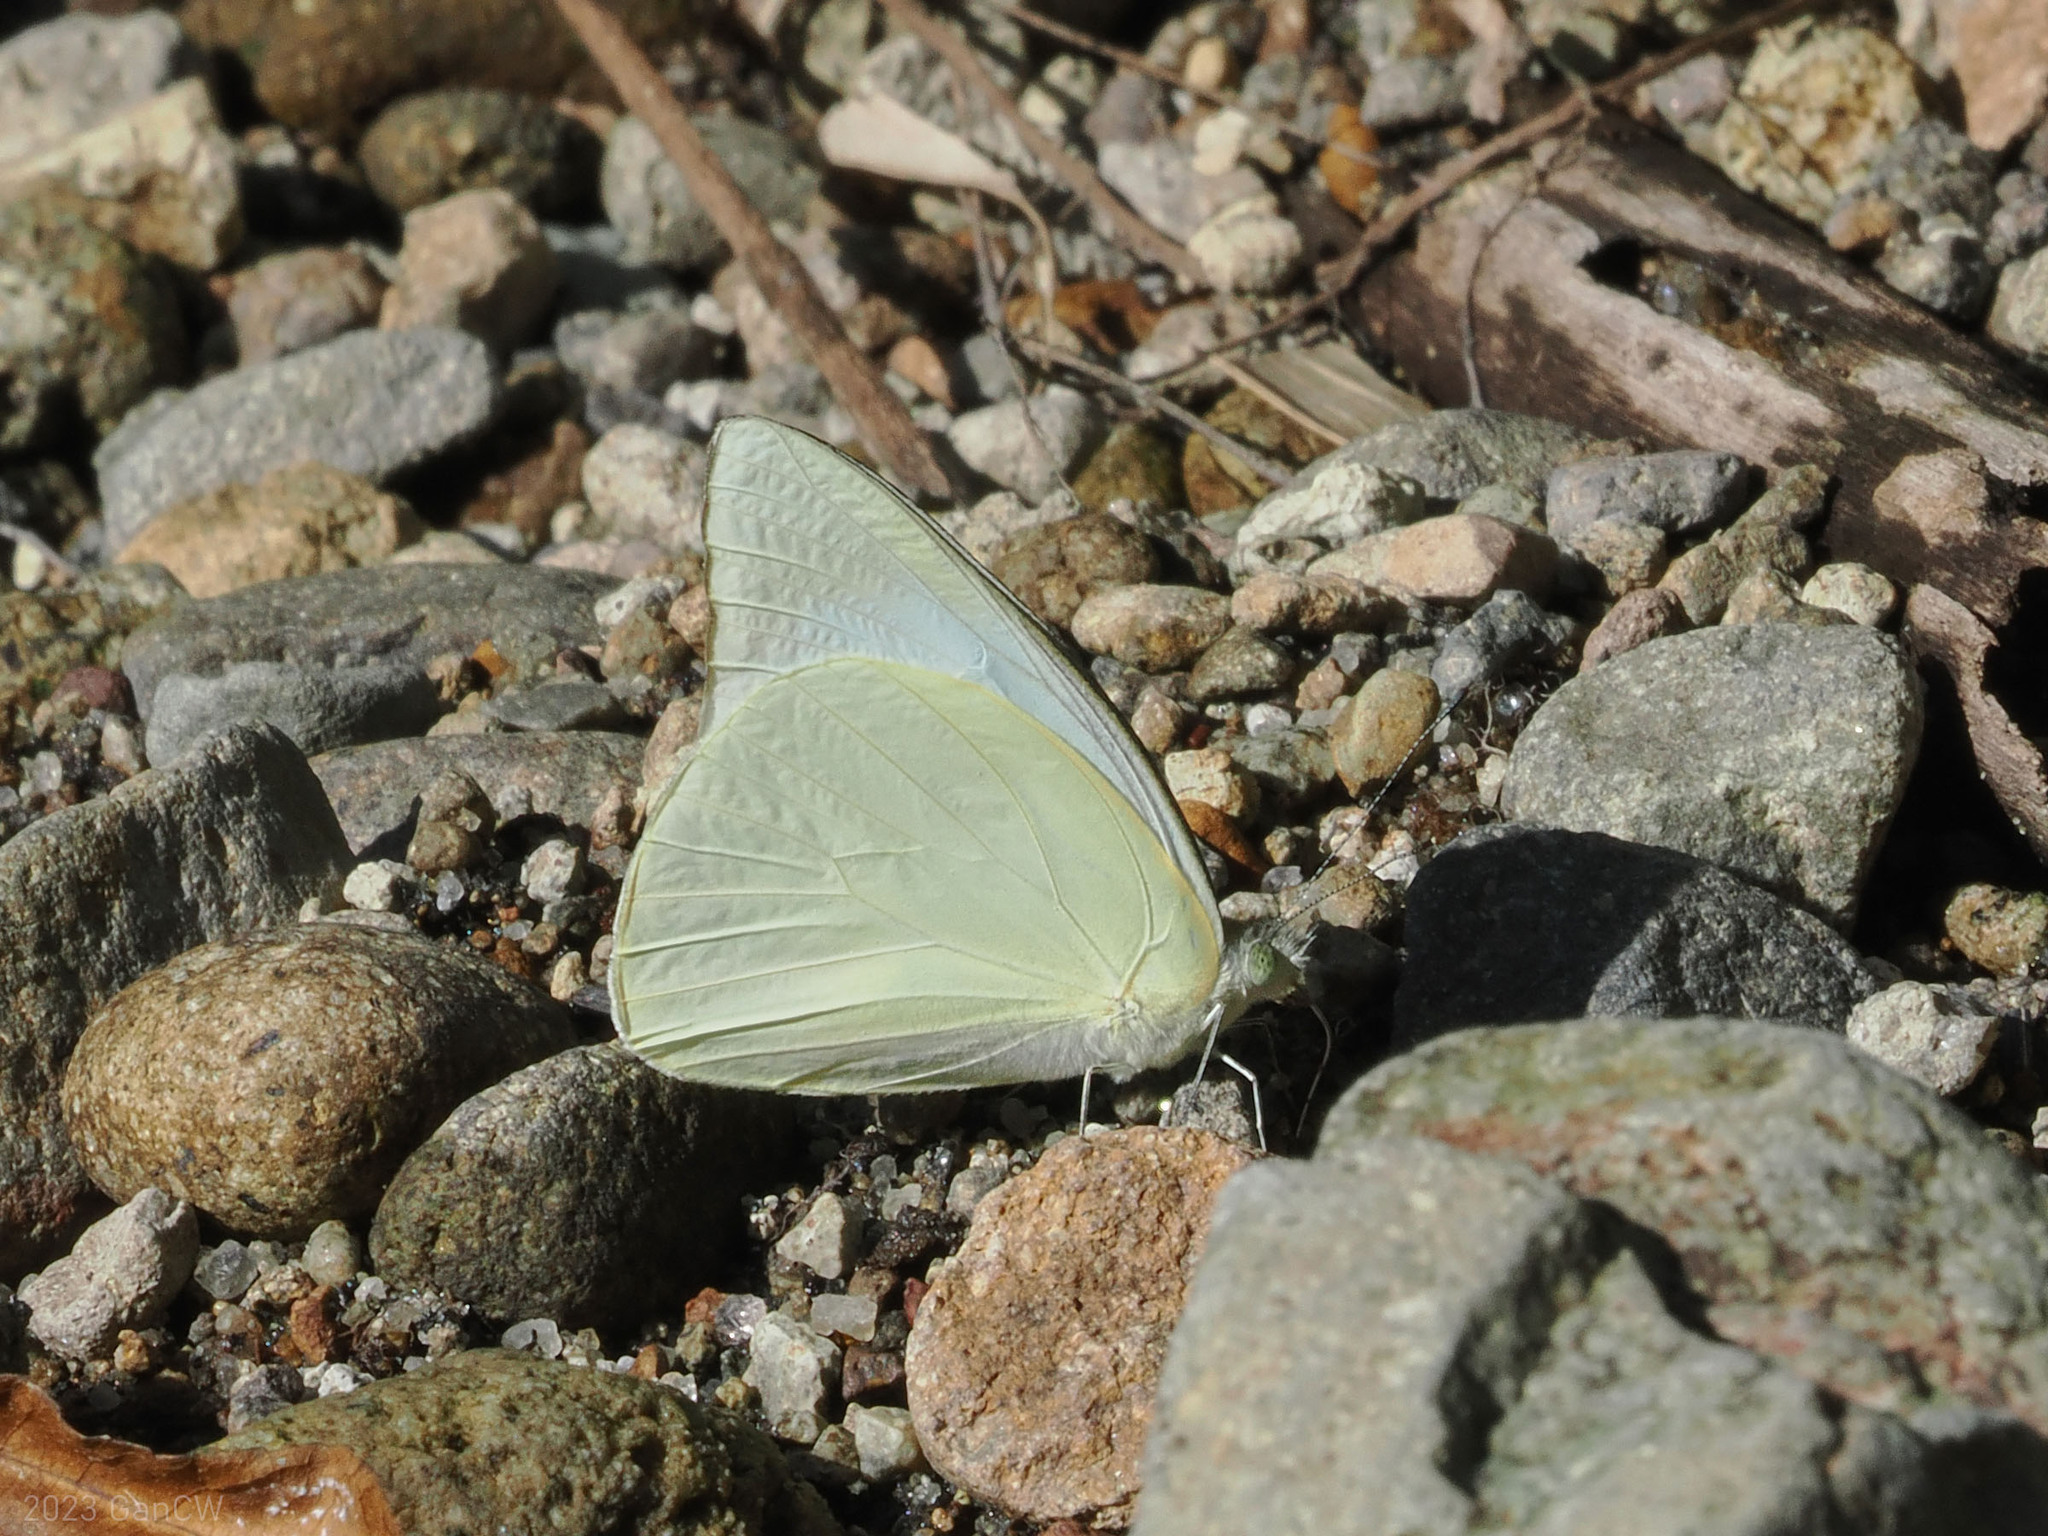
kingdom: Animalia
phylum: Arthropoda
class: Insecta
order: Lepidoptera
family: Pieridae
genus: Appias
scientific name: Appias albina
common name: Common albatross
